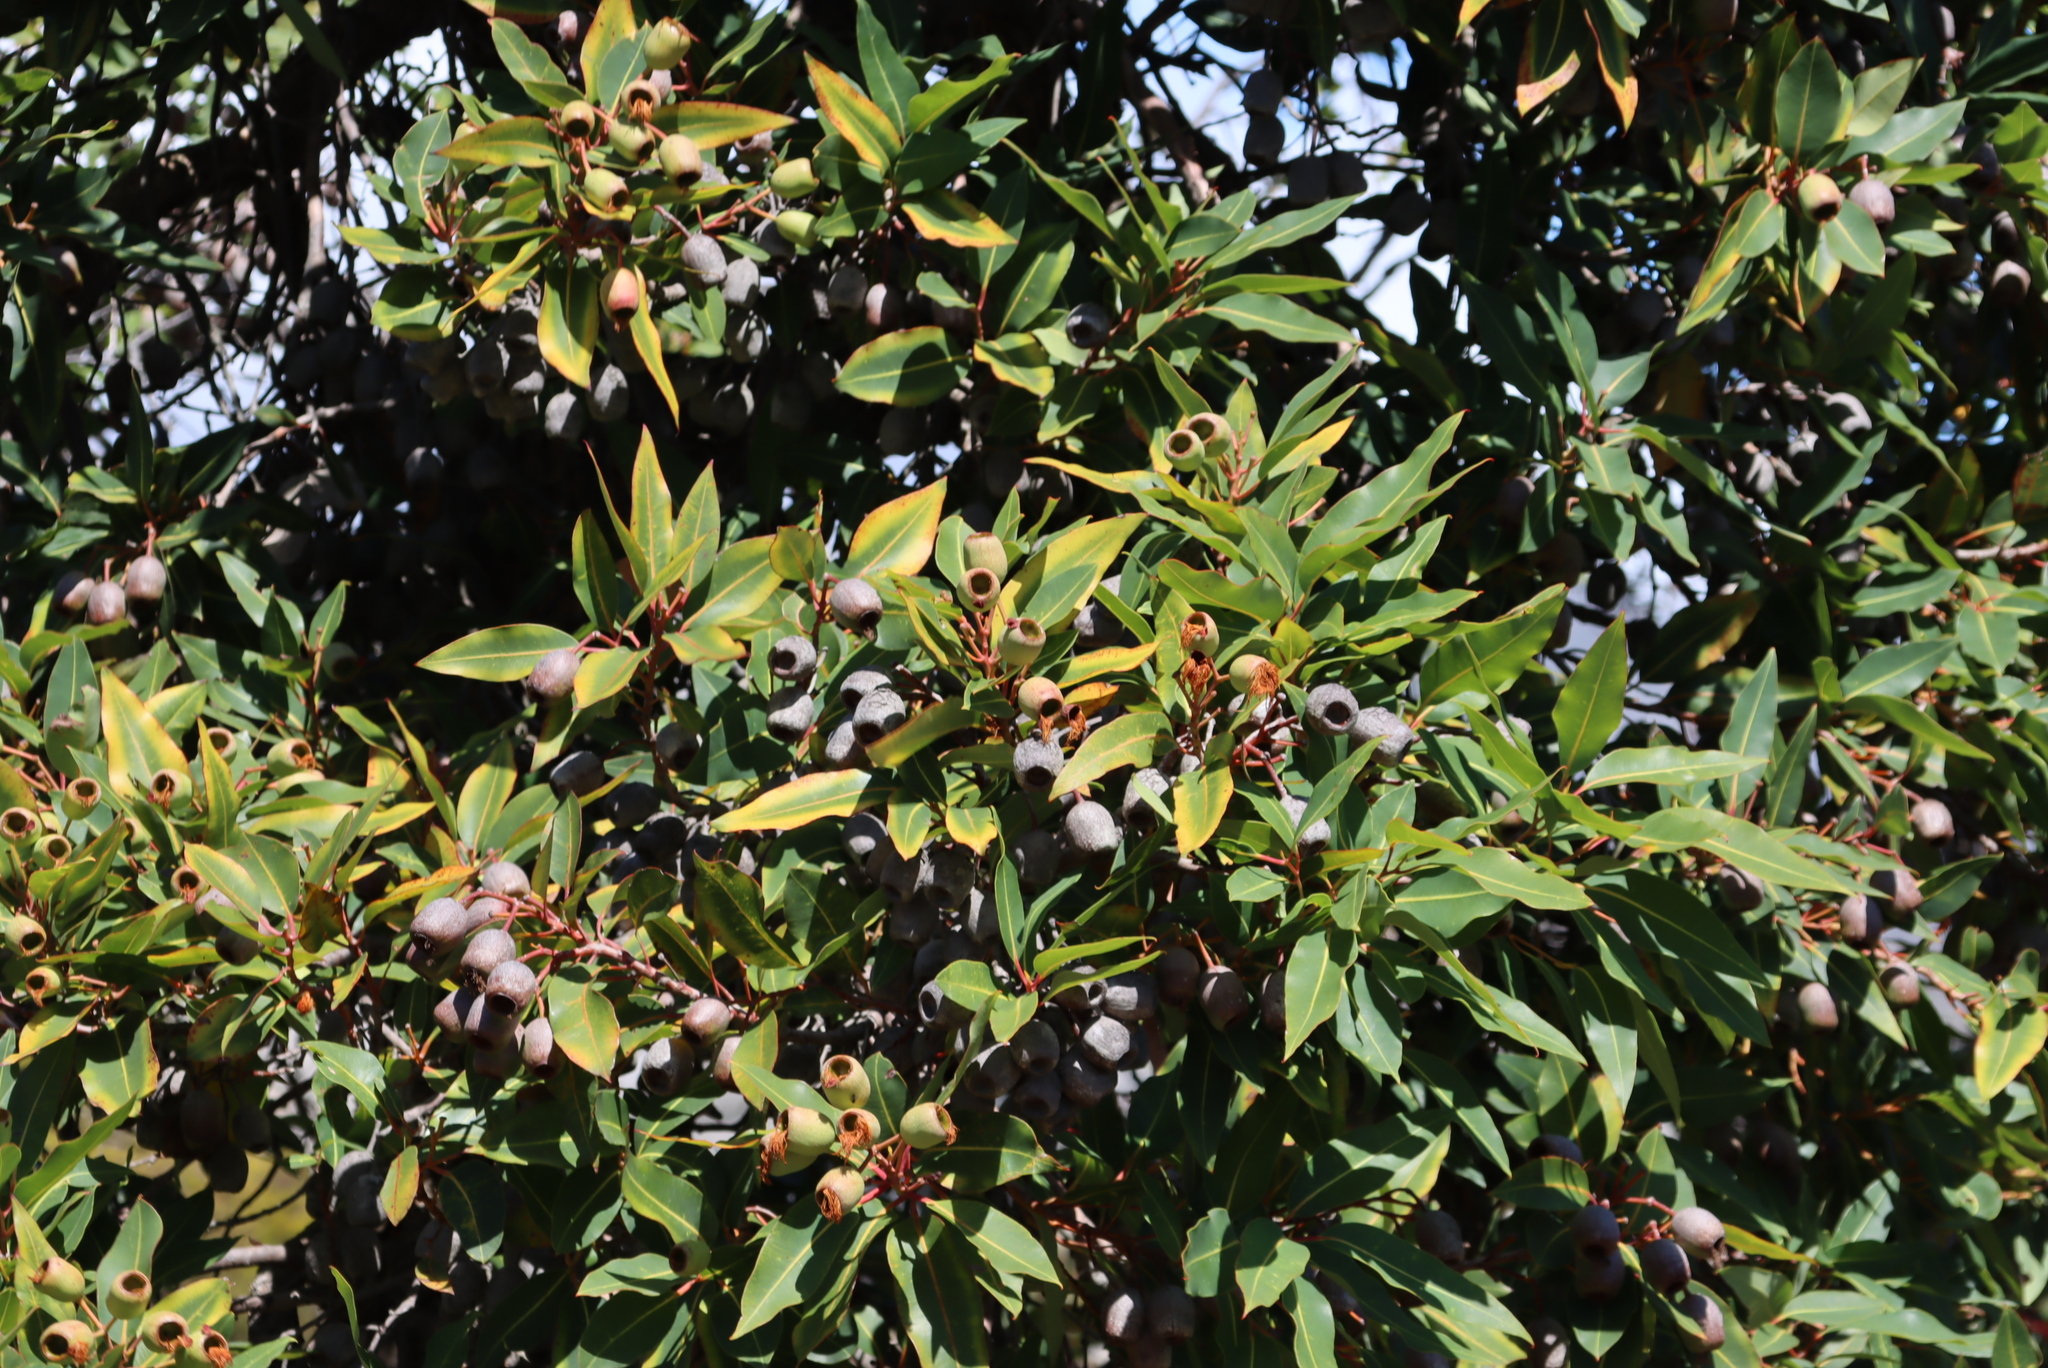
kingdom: Plantae
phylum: Tracheophyta
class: Magnoliopsida
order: Myrtales
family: Myrtaceae
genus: Corymbia
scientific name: Corymbia ficifolia
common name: Redflower gum
